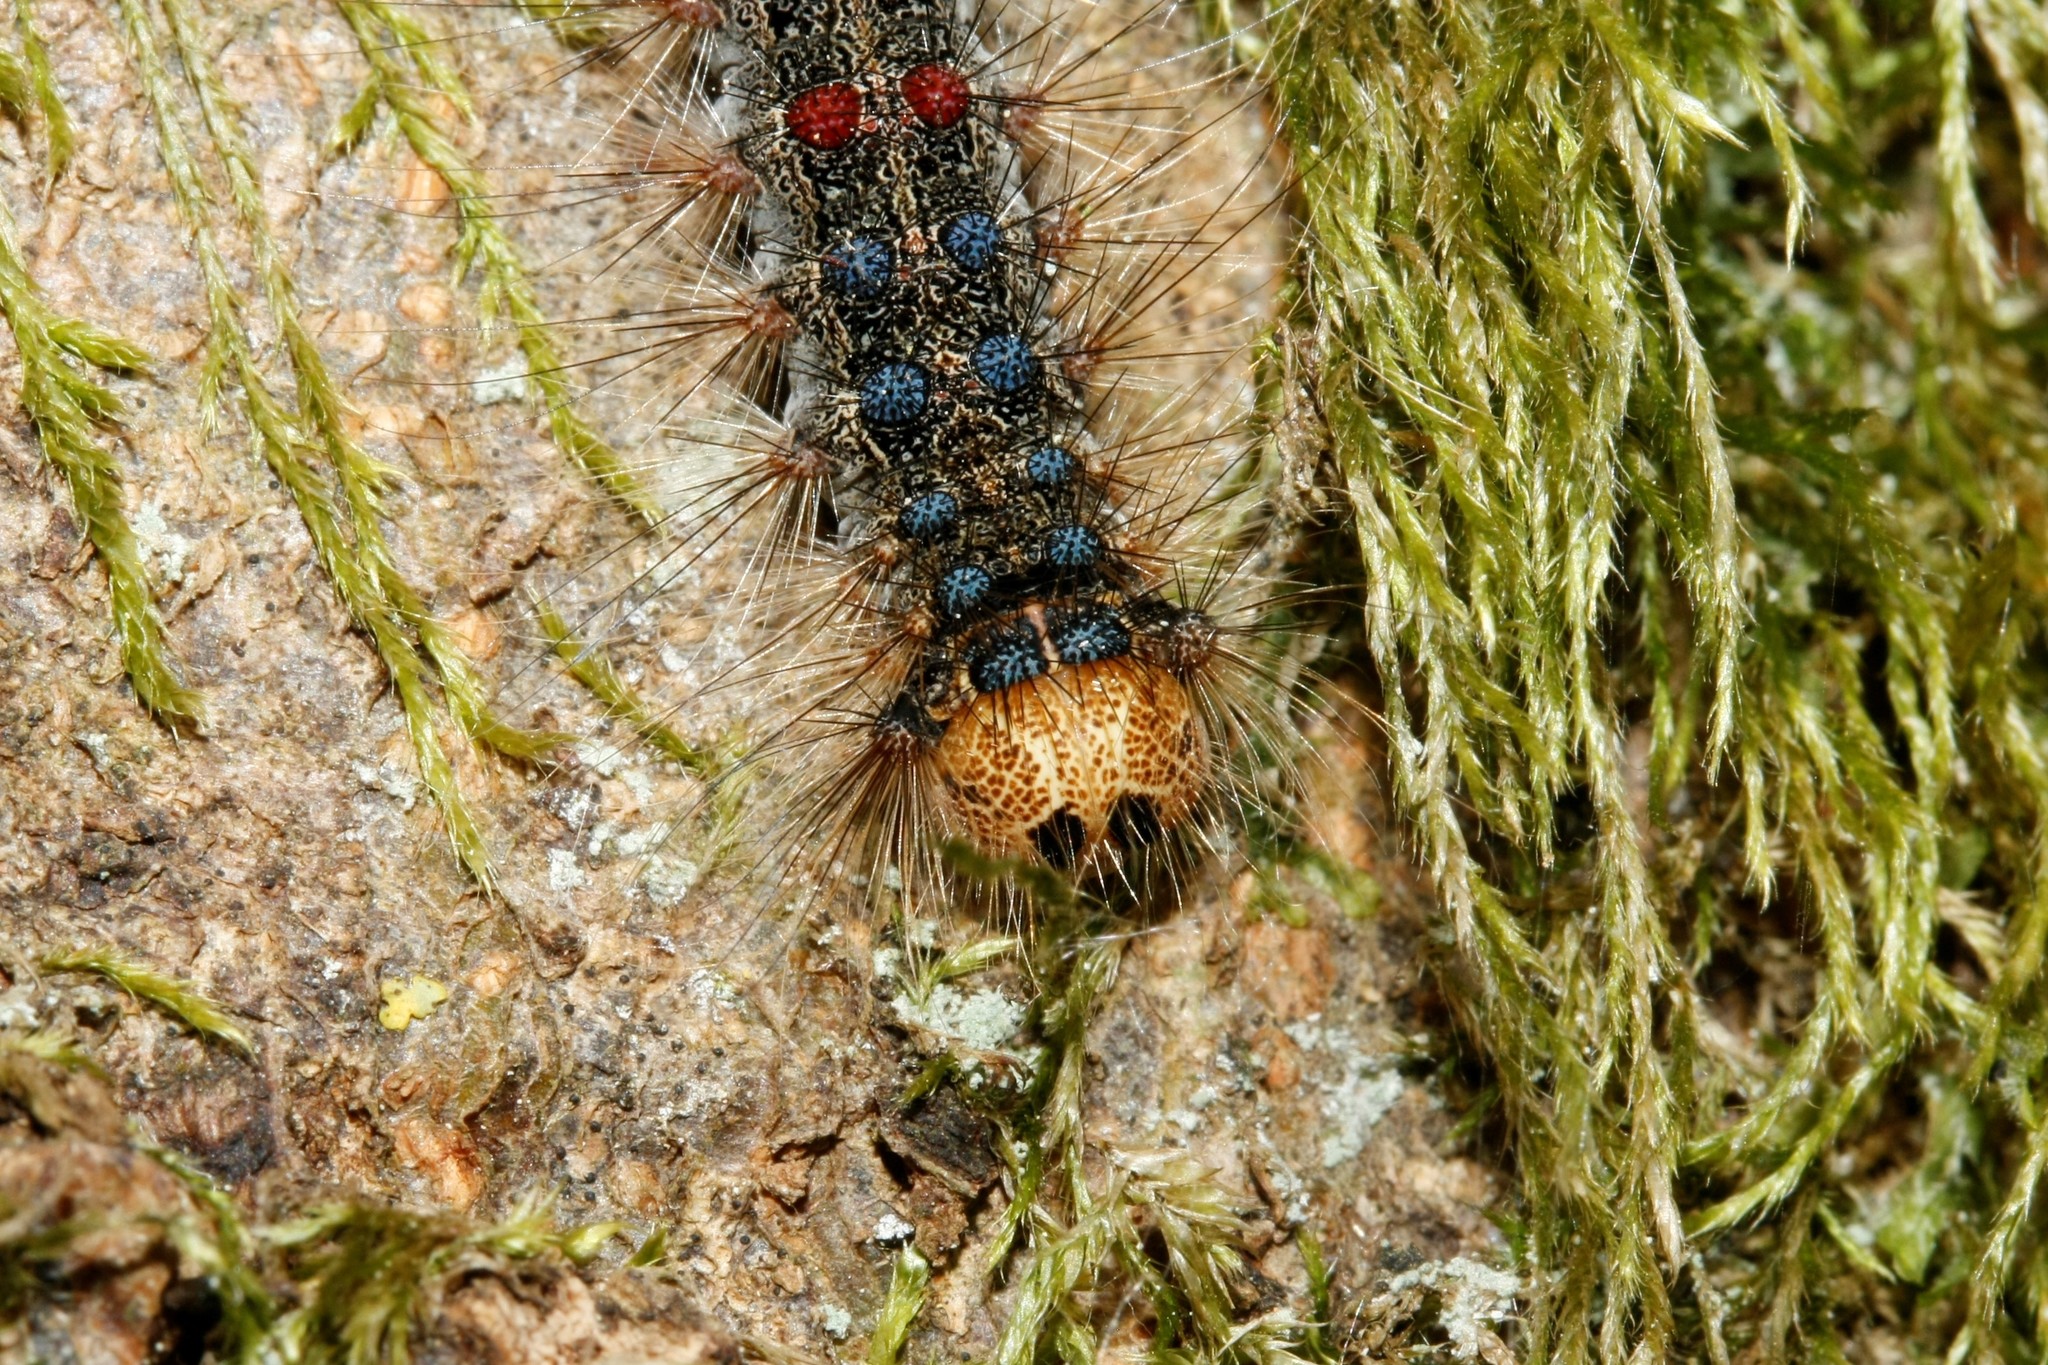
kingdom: Animalia
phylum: Arthropoda
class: Insecta
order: Lepidoptera
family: Erebidae
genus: Lymantria
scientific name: Lymantria dispar
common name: Gypsy moth
